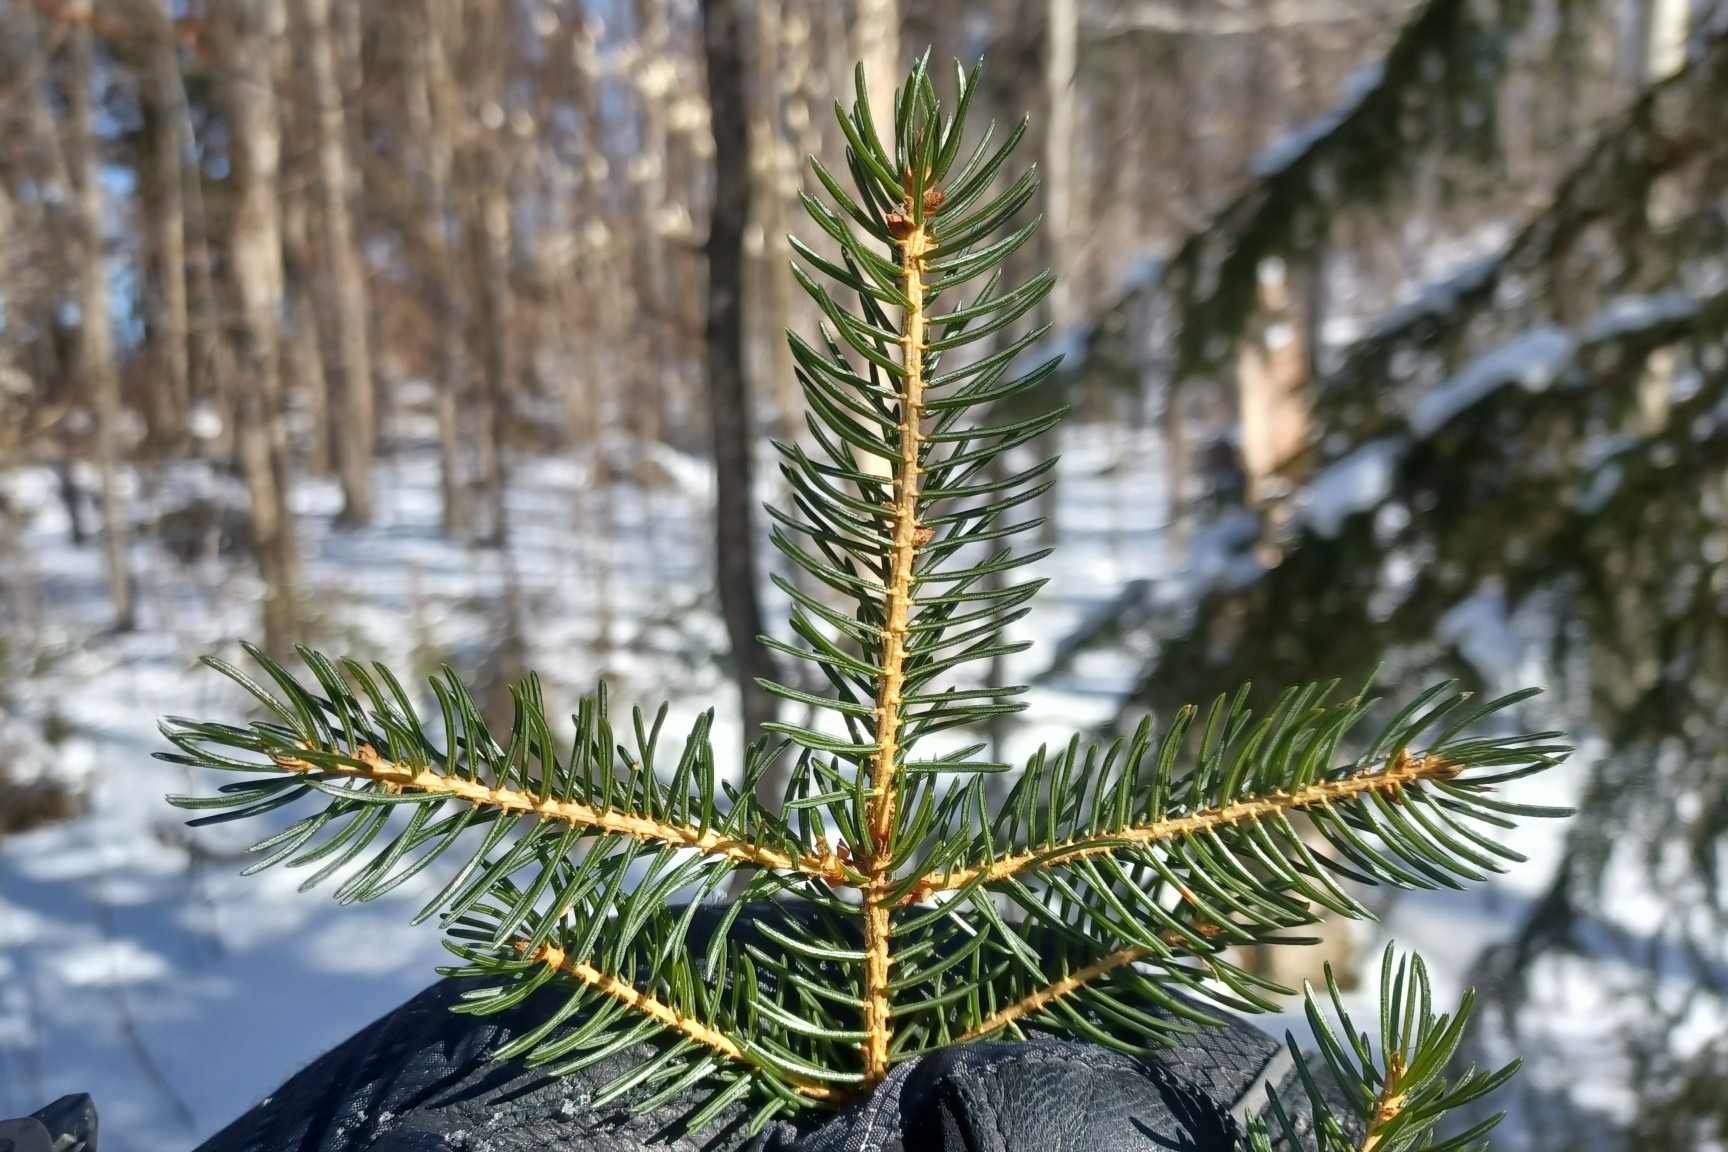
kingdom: Plantae
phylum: Tracheophyta
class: Pinopsida
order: Pinales
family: Pinaceae
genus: Picea
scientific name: Picea rubens
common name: Red spruce
